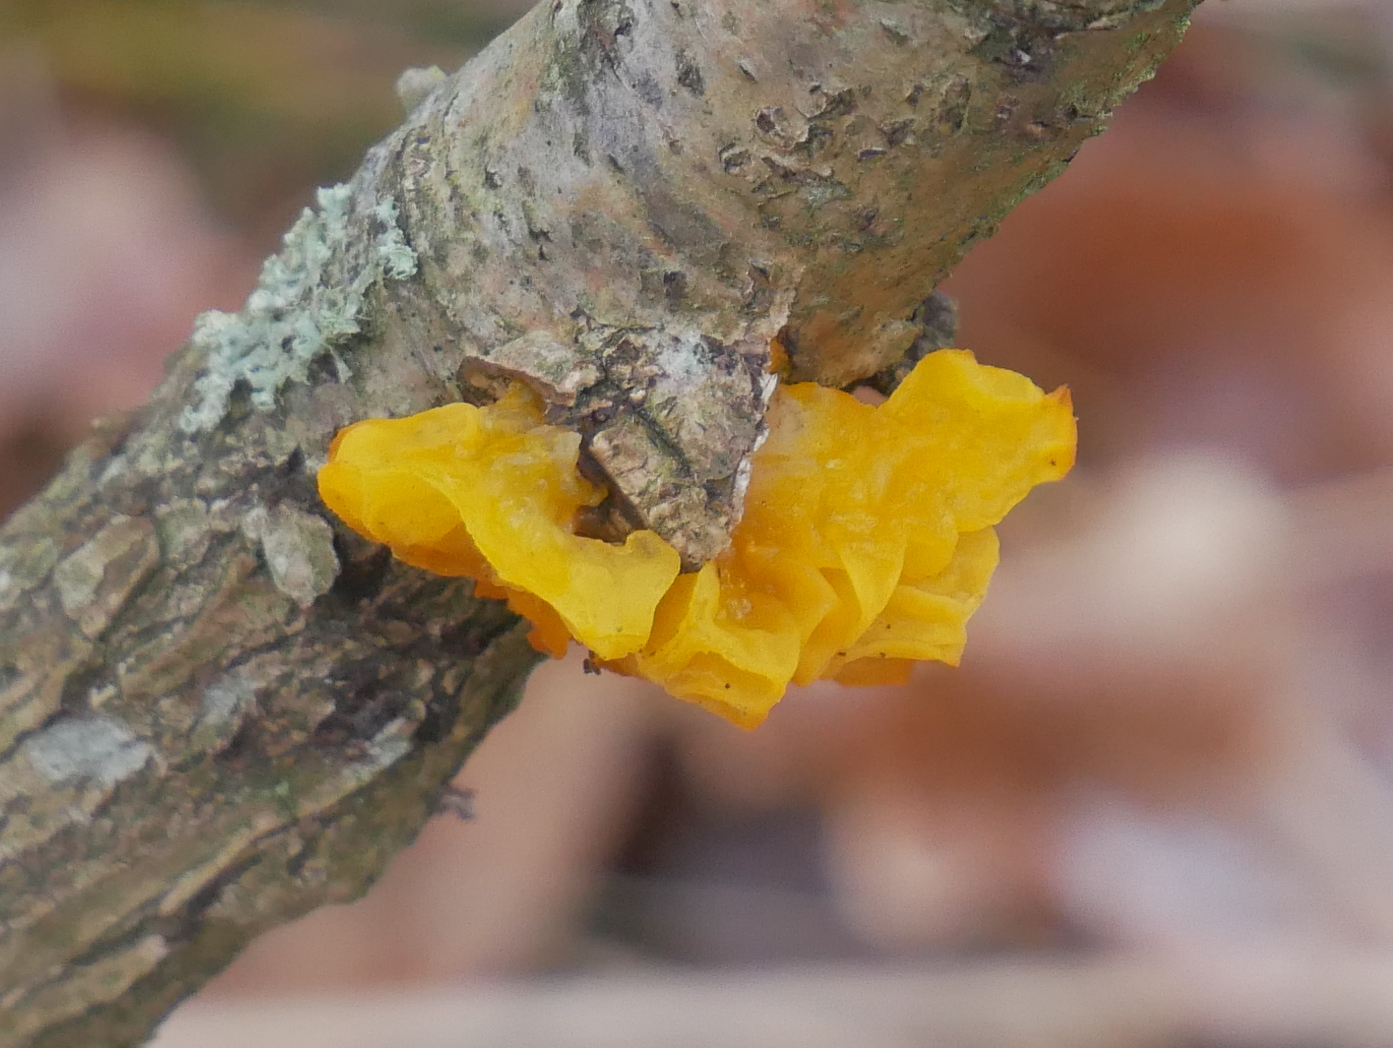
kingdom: Fungi
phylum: Basidiomycota
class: Tremellomycetes
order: Tremellales
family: Tremellaceae
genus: Tremella
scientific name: Tremella mesenterica
